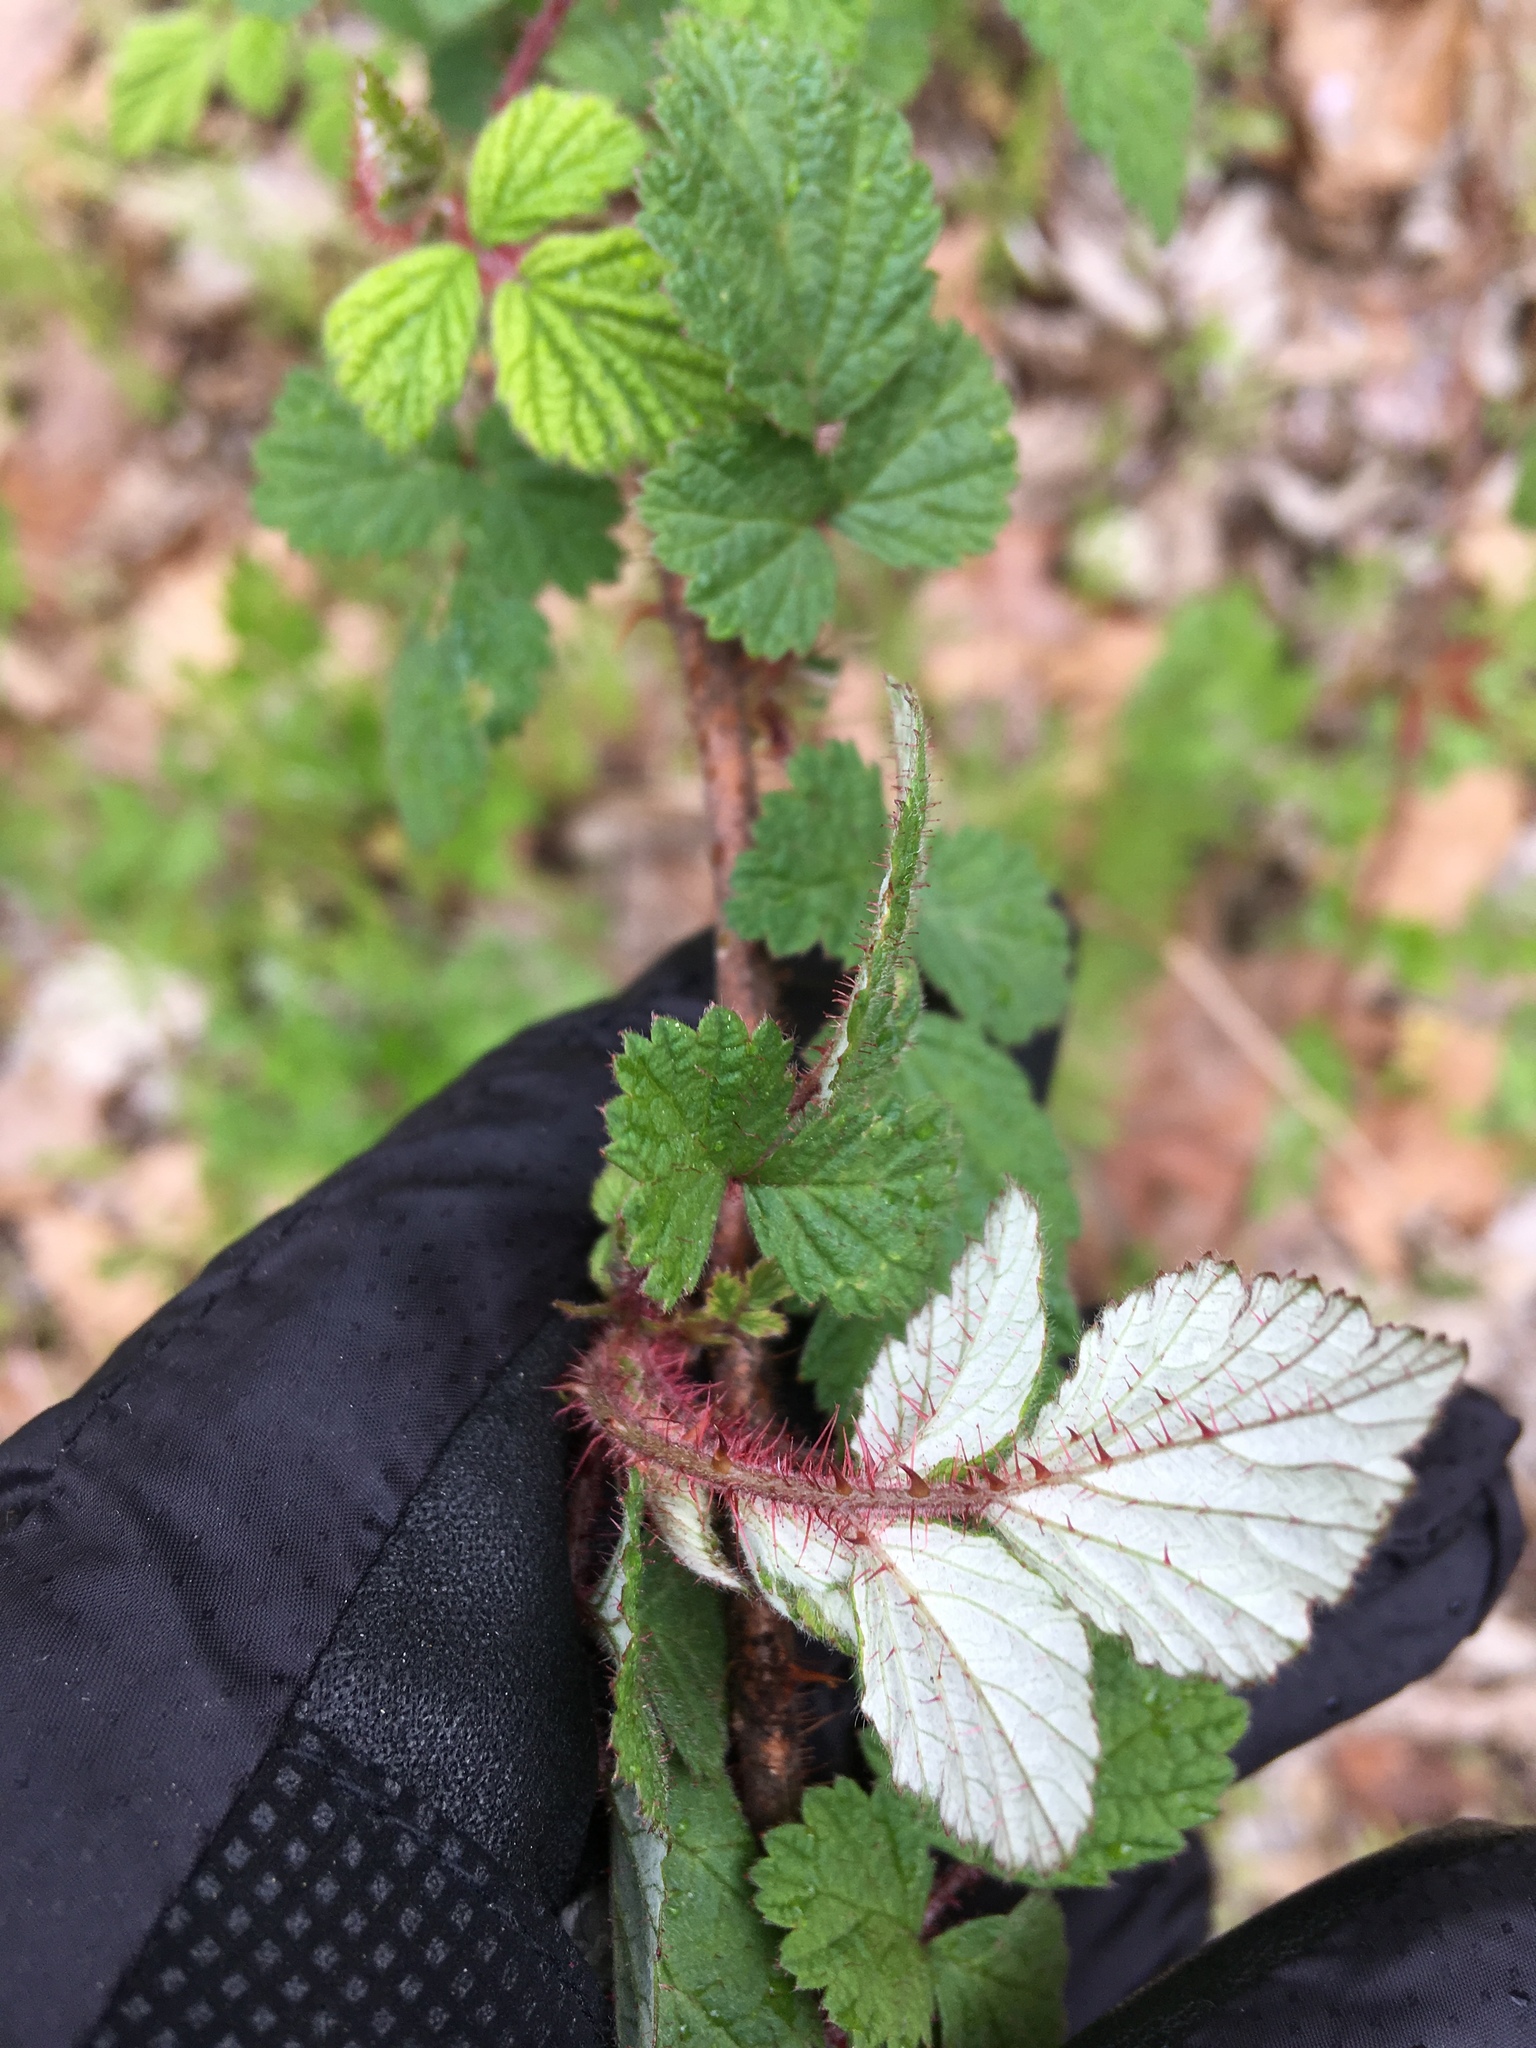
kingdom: Plantae
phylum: Tracheophyta
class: Magnoliopsida
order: Rosales
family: Rosaceae
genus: Rubus
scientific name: Rubus phoenicolasius
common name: Japanese wineberry
